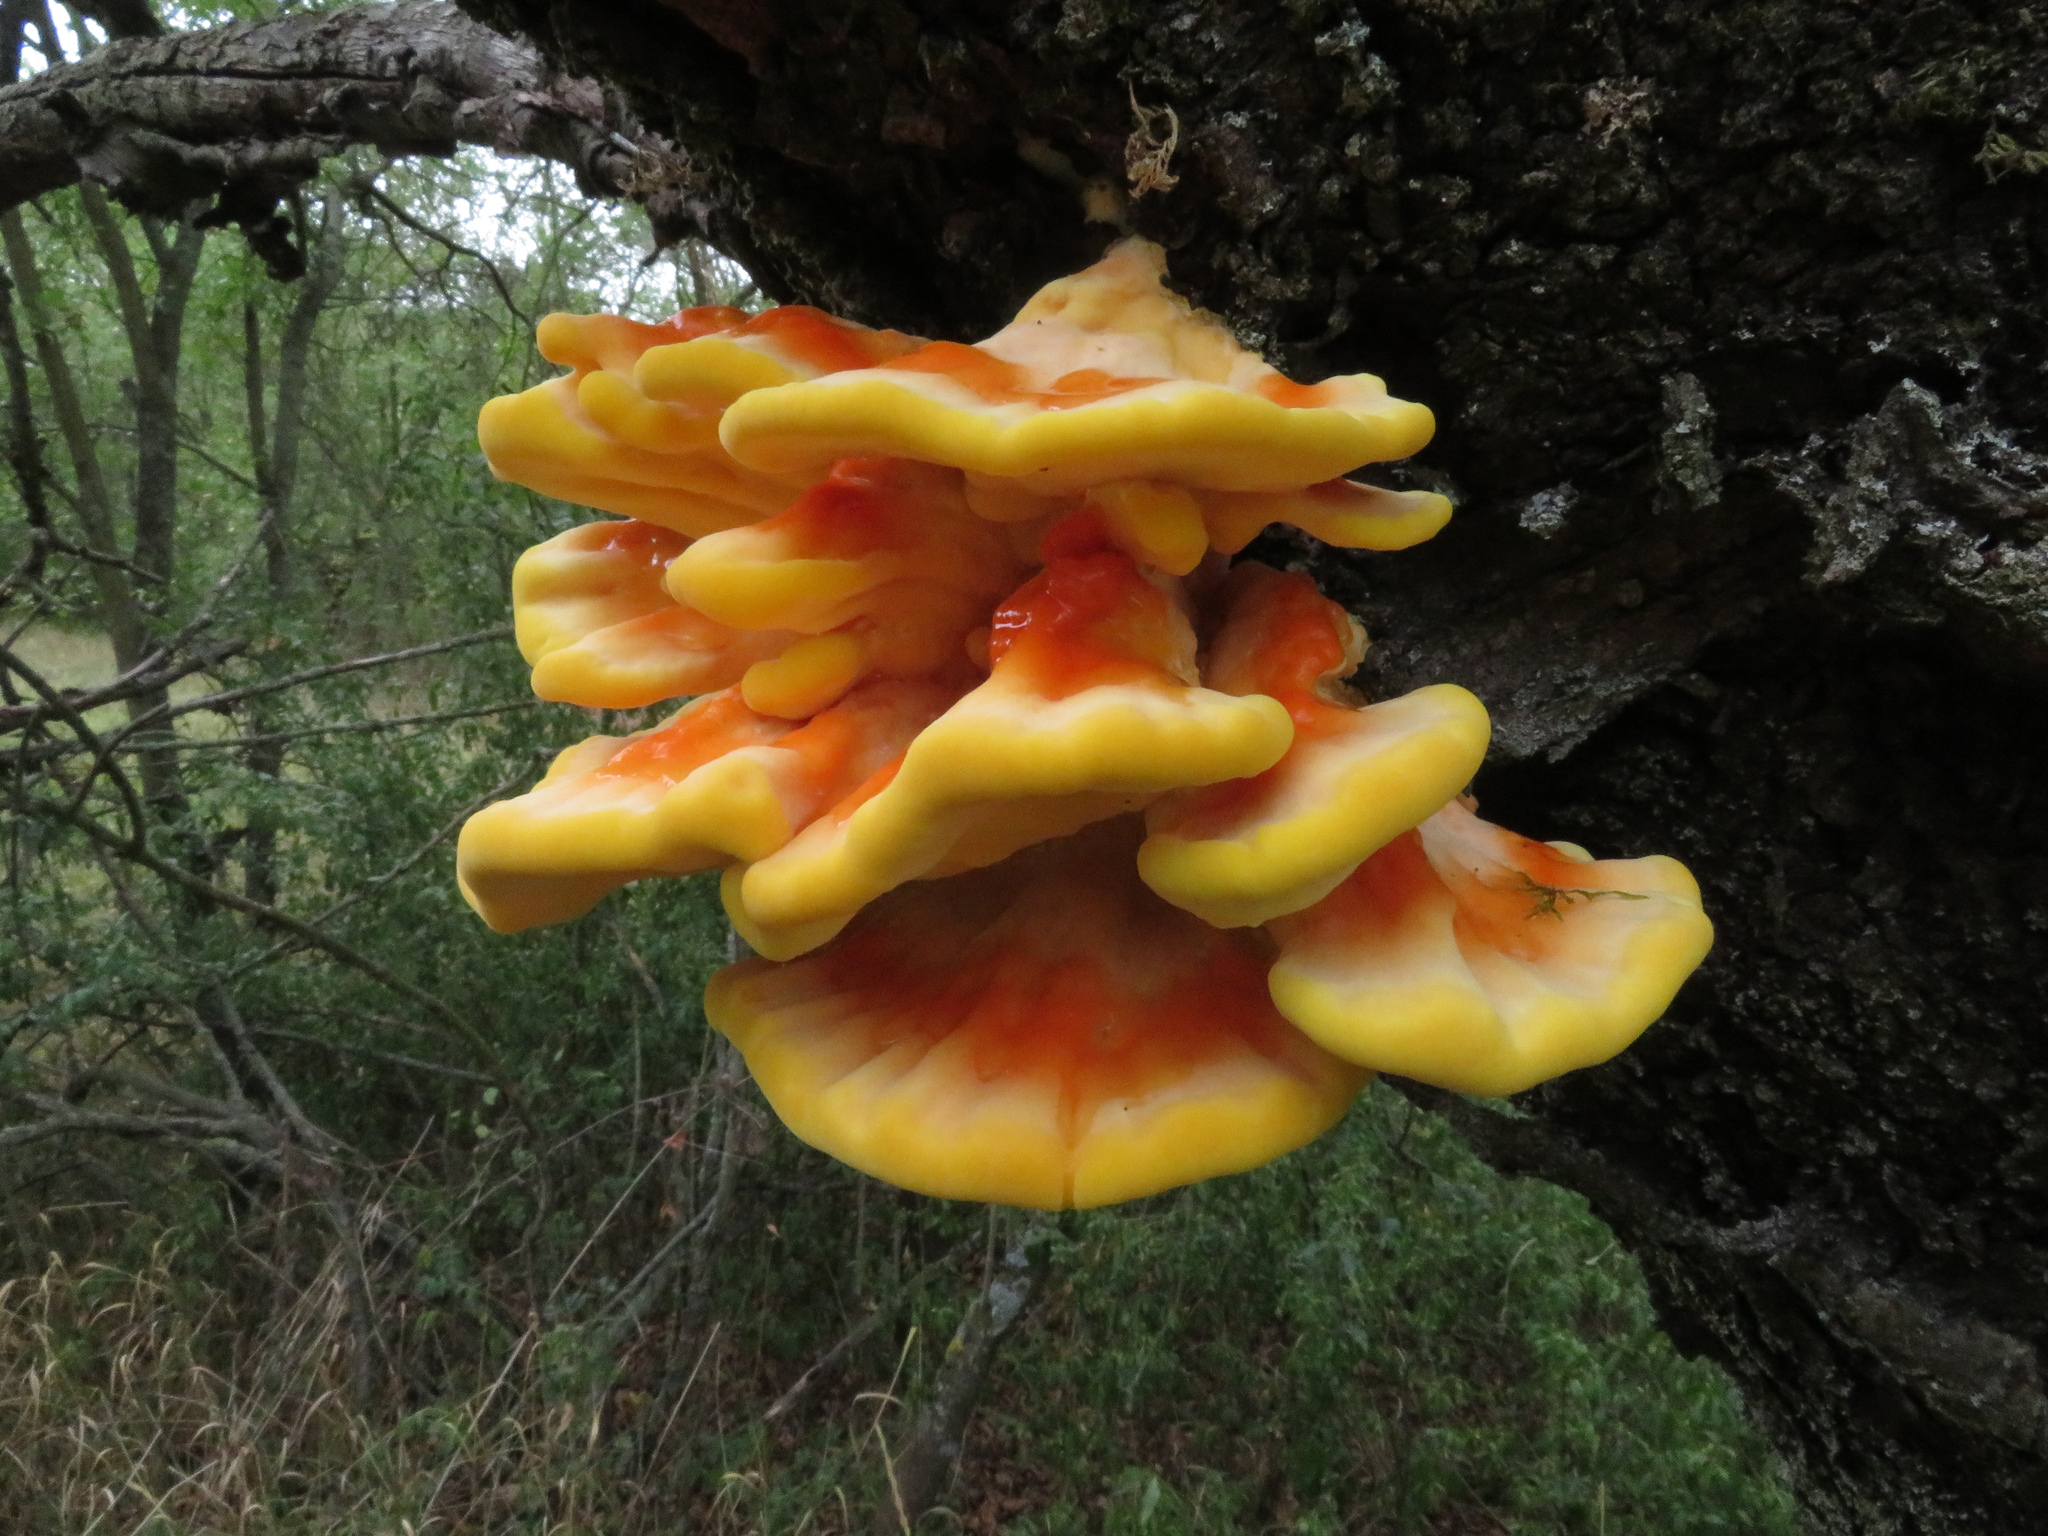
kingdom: Fungi
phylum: Basidiomycota
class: Agaricomycetes
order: Polyporales
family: Laetiporaceae
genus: Laetiporus
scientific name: Laetiporus sulphureus
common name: Chicken of the woods
